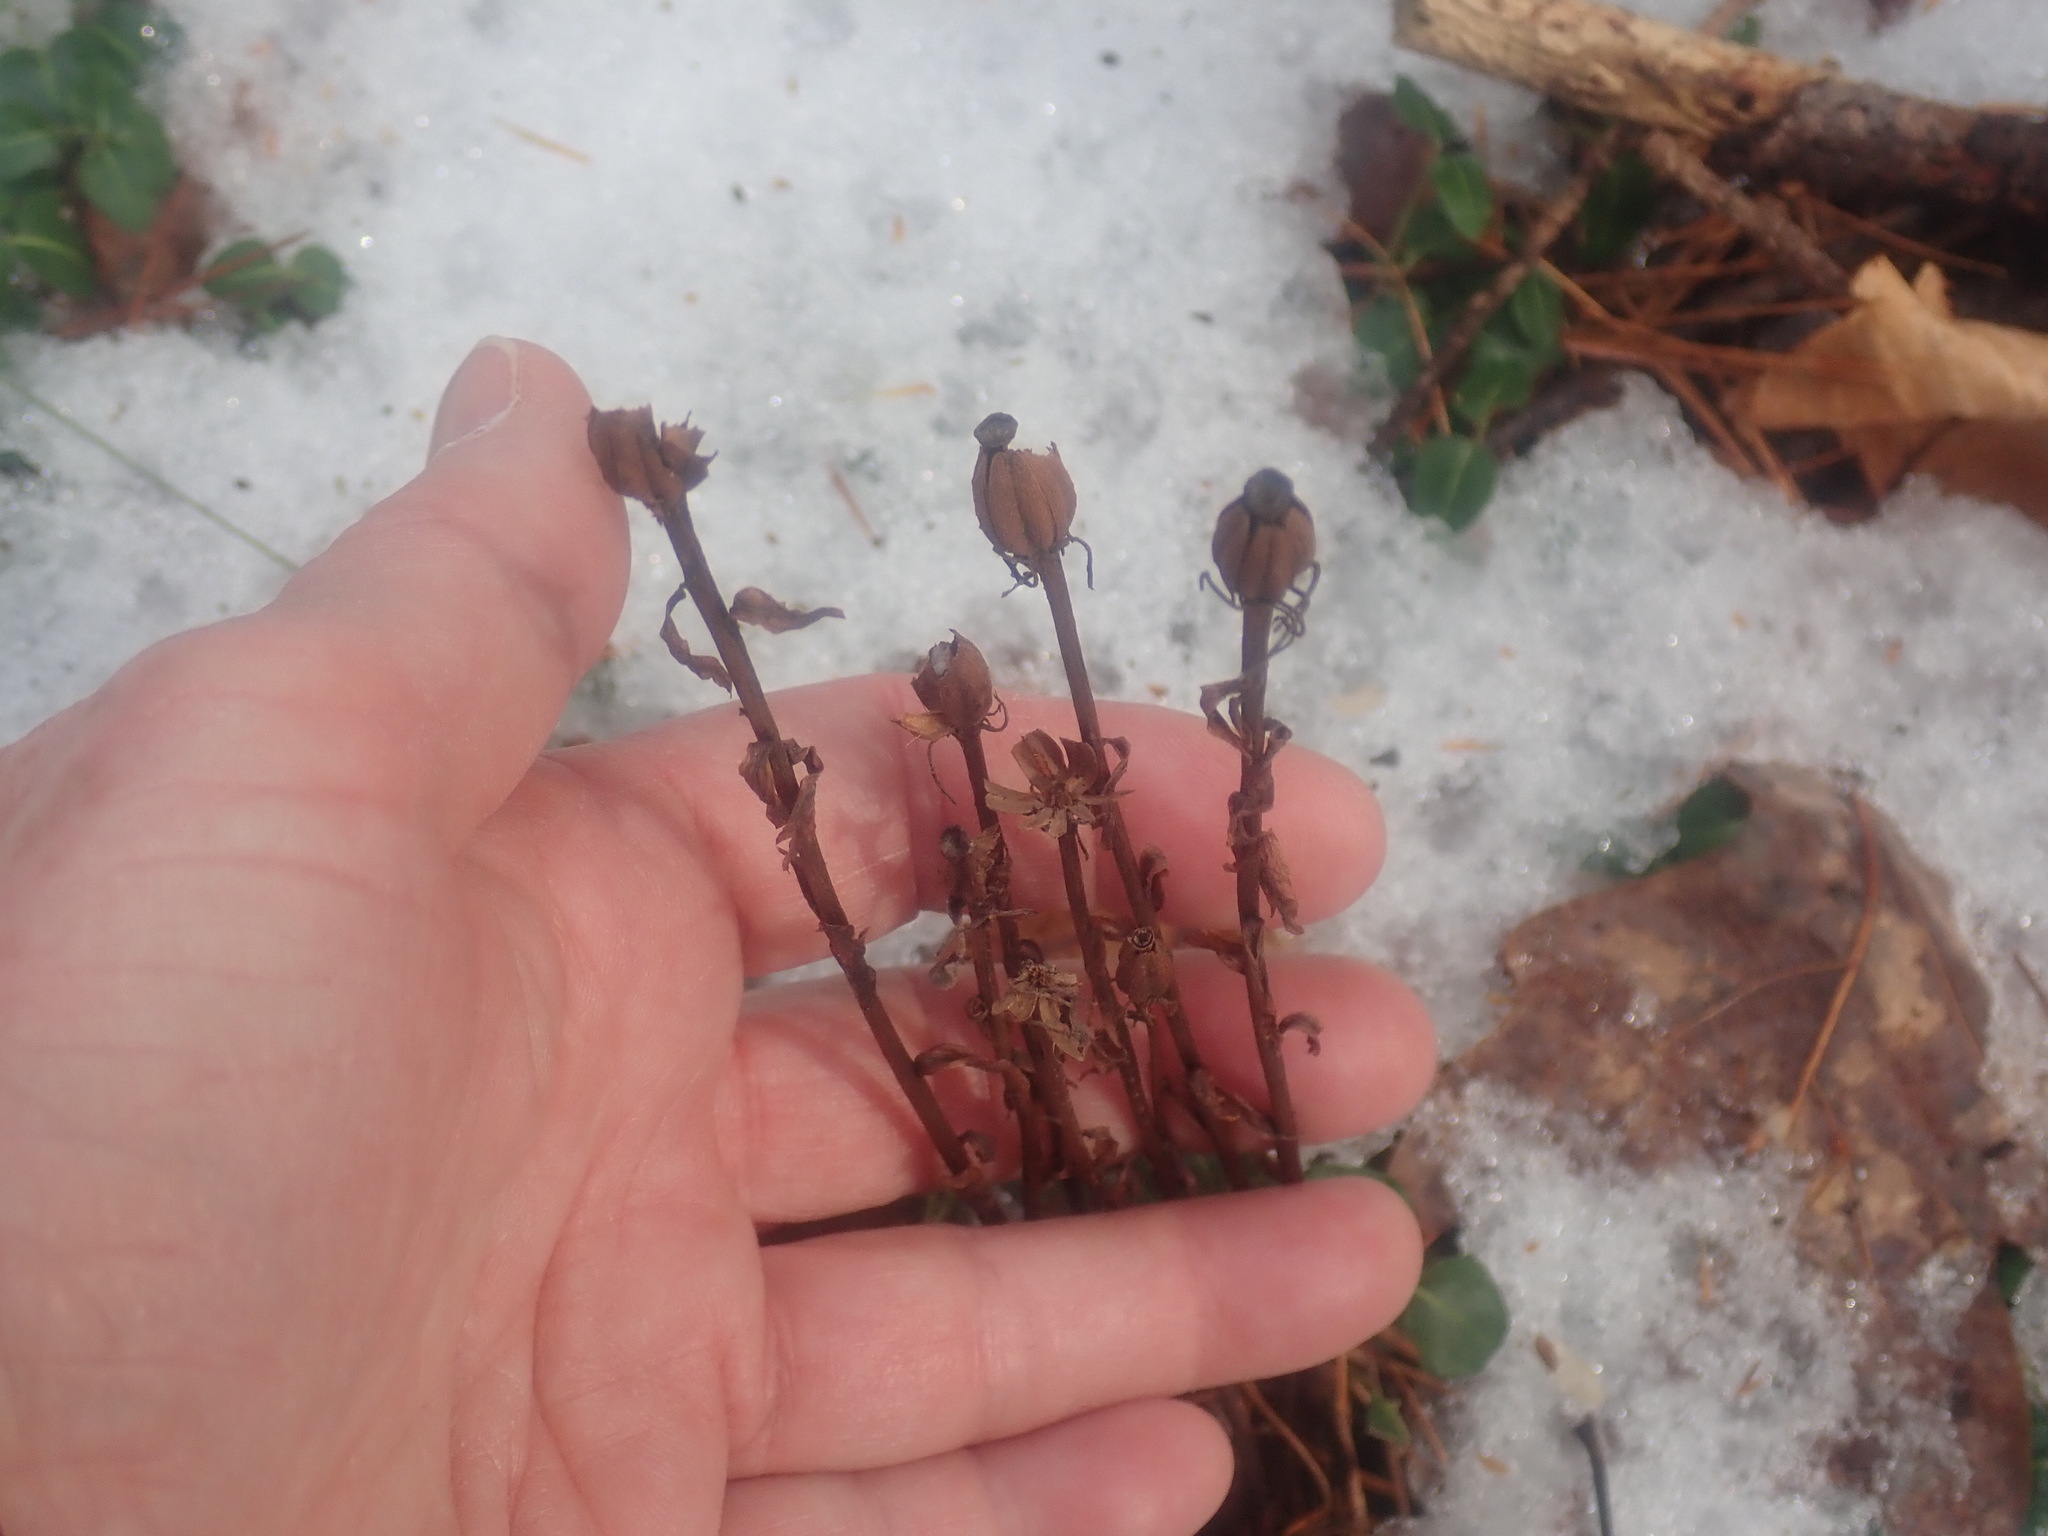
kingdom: Plantae
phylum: Tracheophyta
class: Magnoliopsida
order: Ericales
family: Ericaceae
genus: Monotropa
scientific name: Monotropa uniflora
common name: Convulsion root
